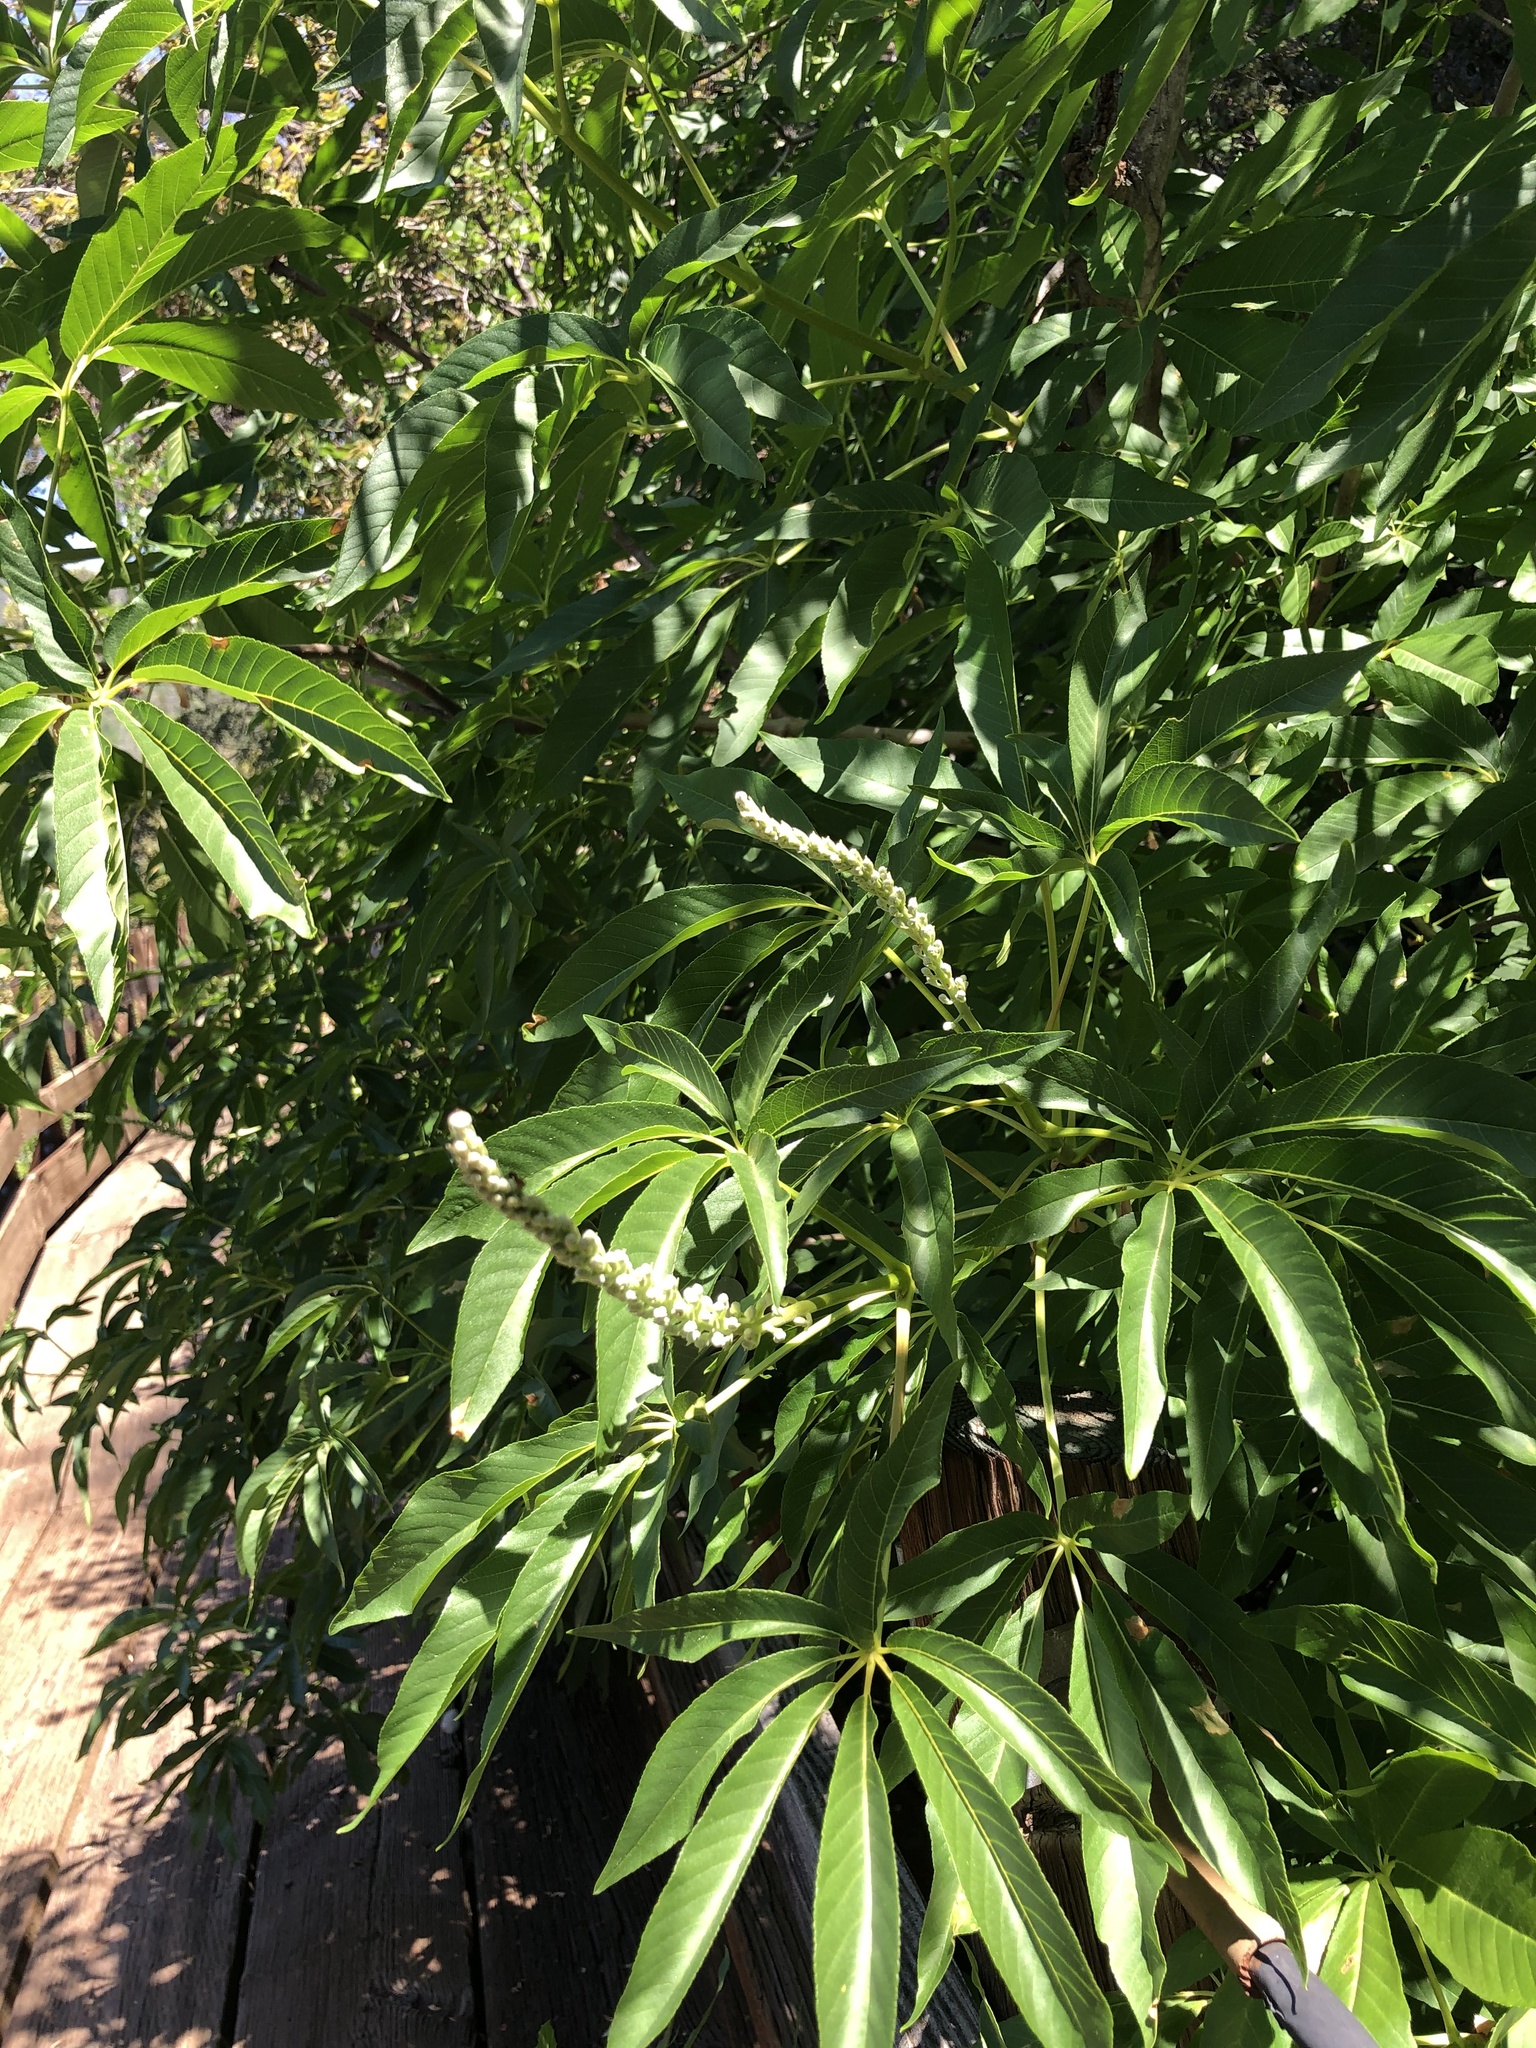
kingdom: Plantae
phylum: Tracheophyta
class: Magnoliopsida
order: Sapindales
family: Sapindaceae
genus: Aesculus
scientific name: Aesculus californica
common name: California buckeye
